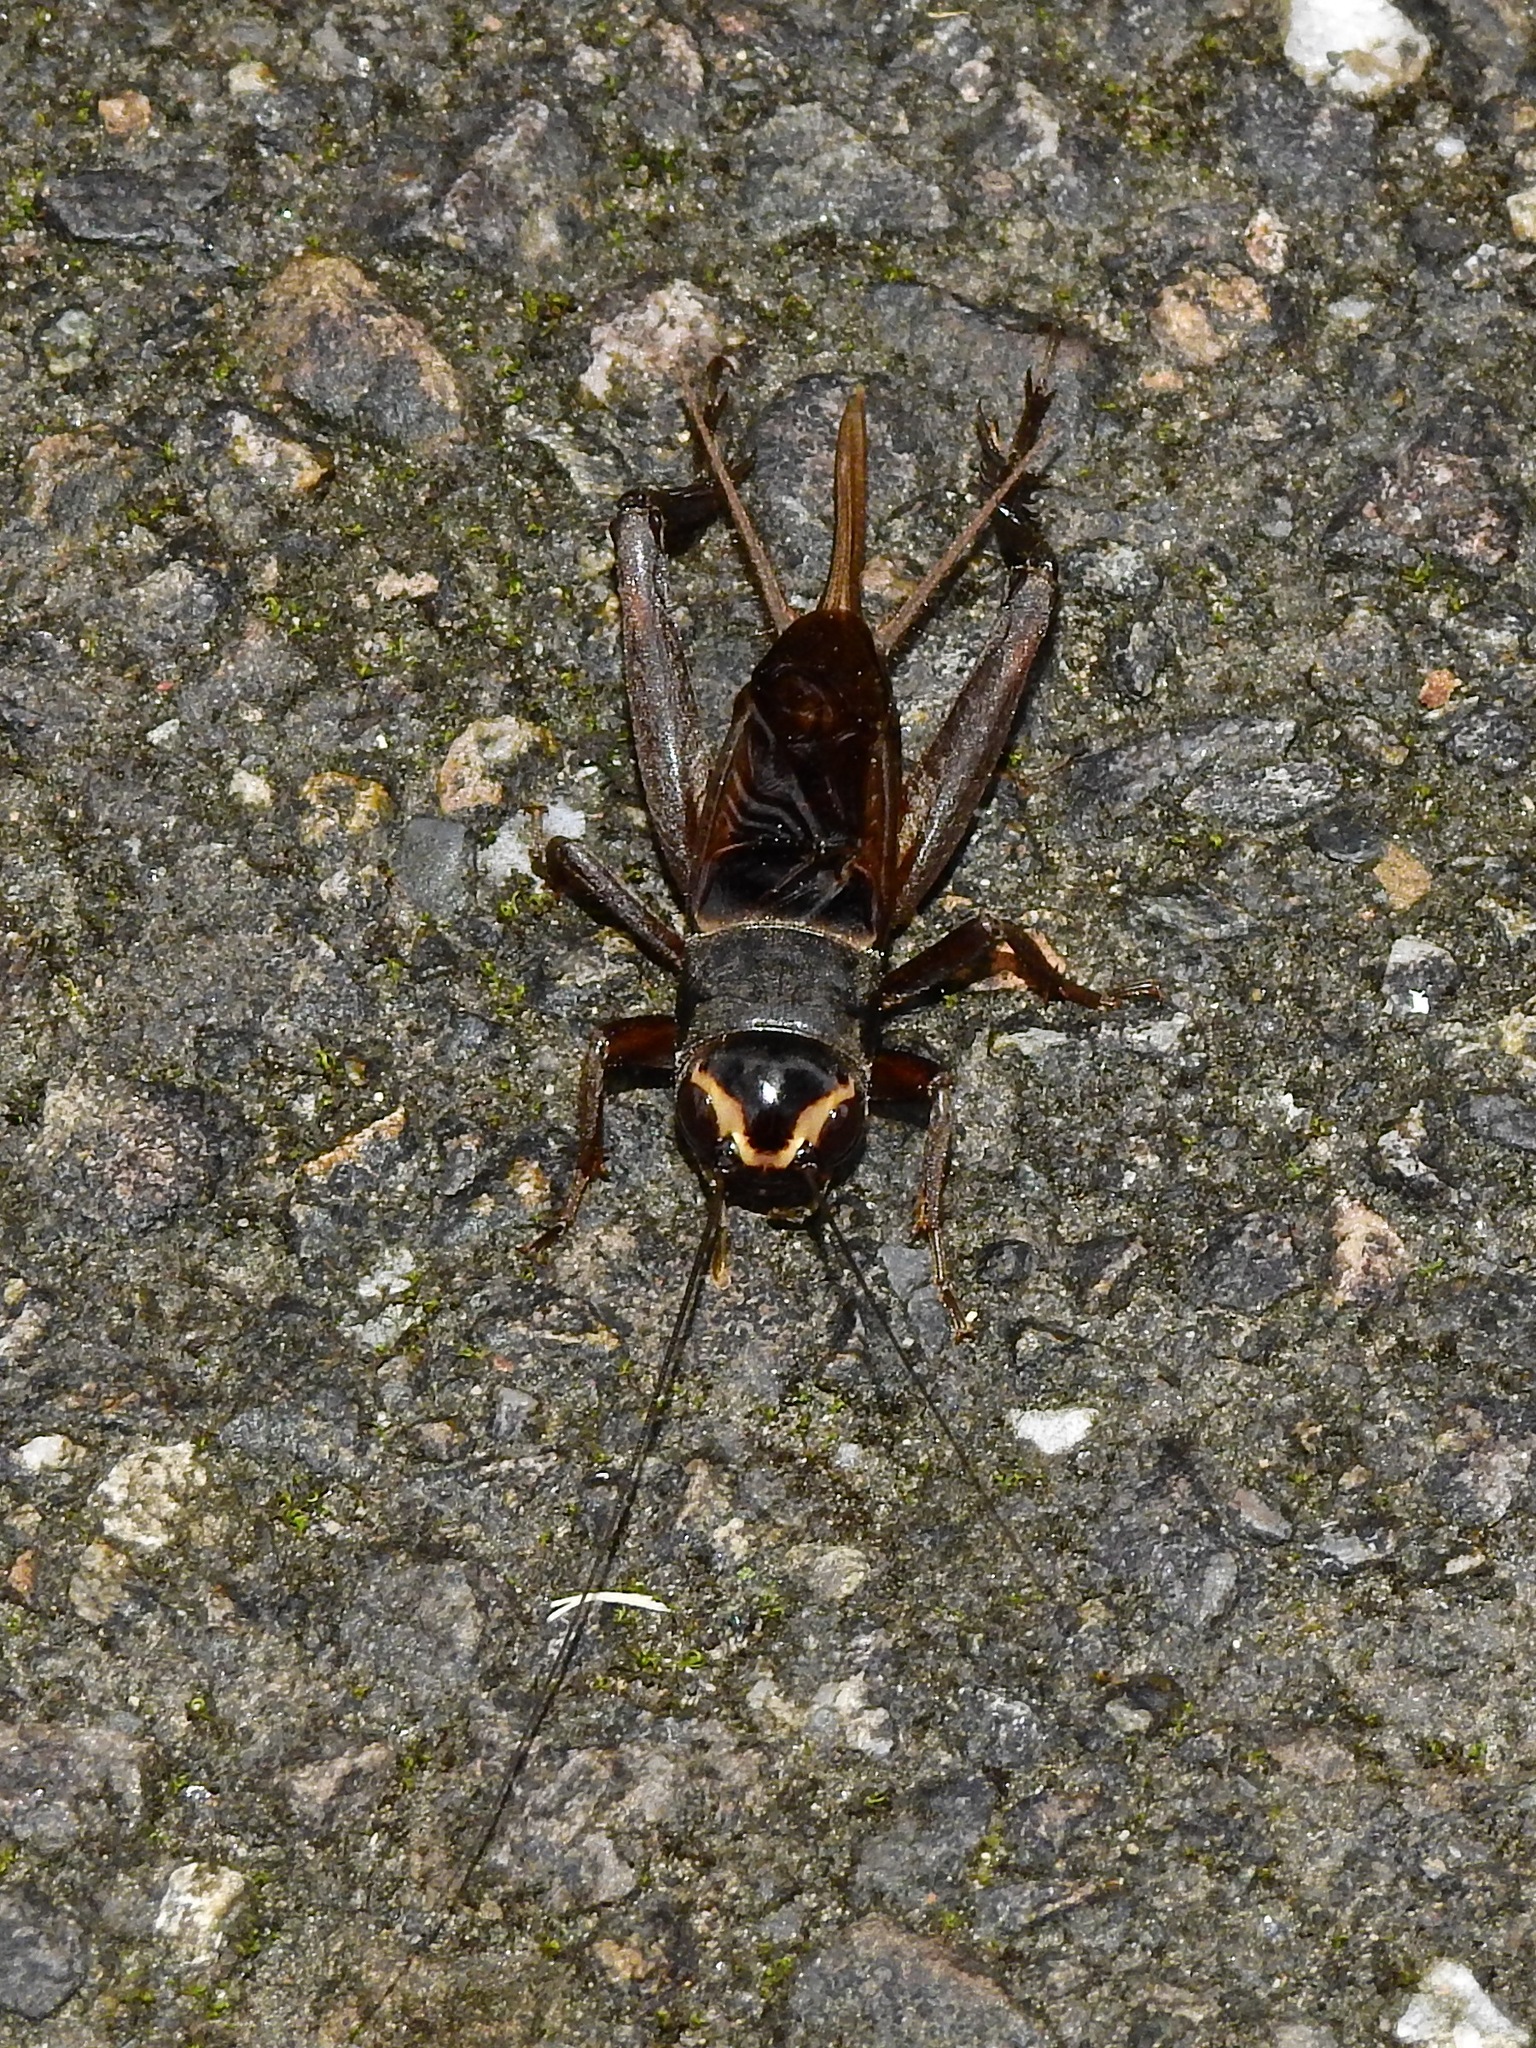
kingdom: Animalia
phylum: Arthropoda
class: Insecta
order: Orthoptera
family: Gryllidae
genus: Teleogryllus
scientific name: Teleogryllus occipitalis
